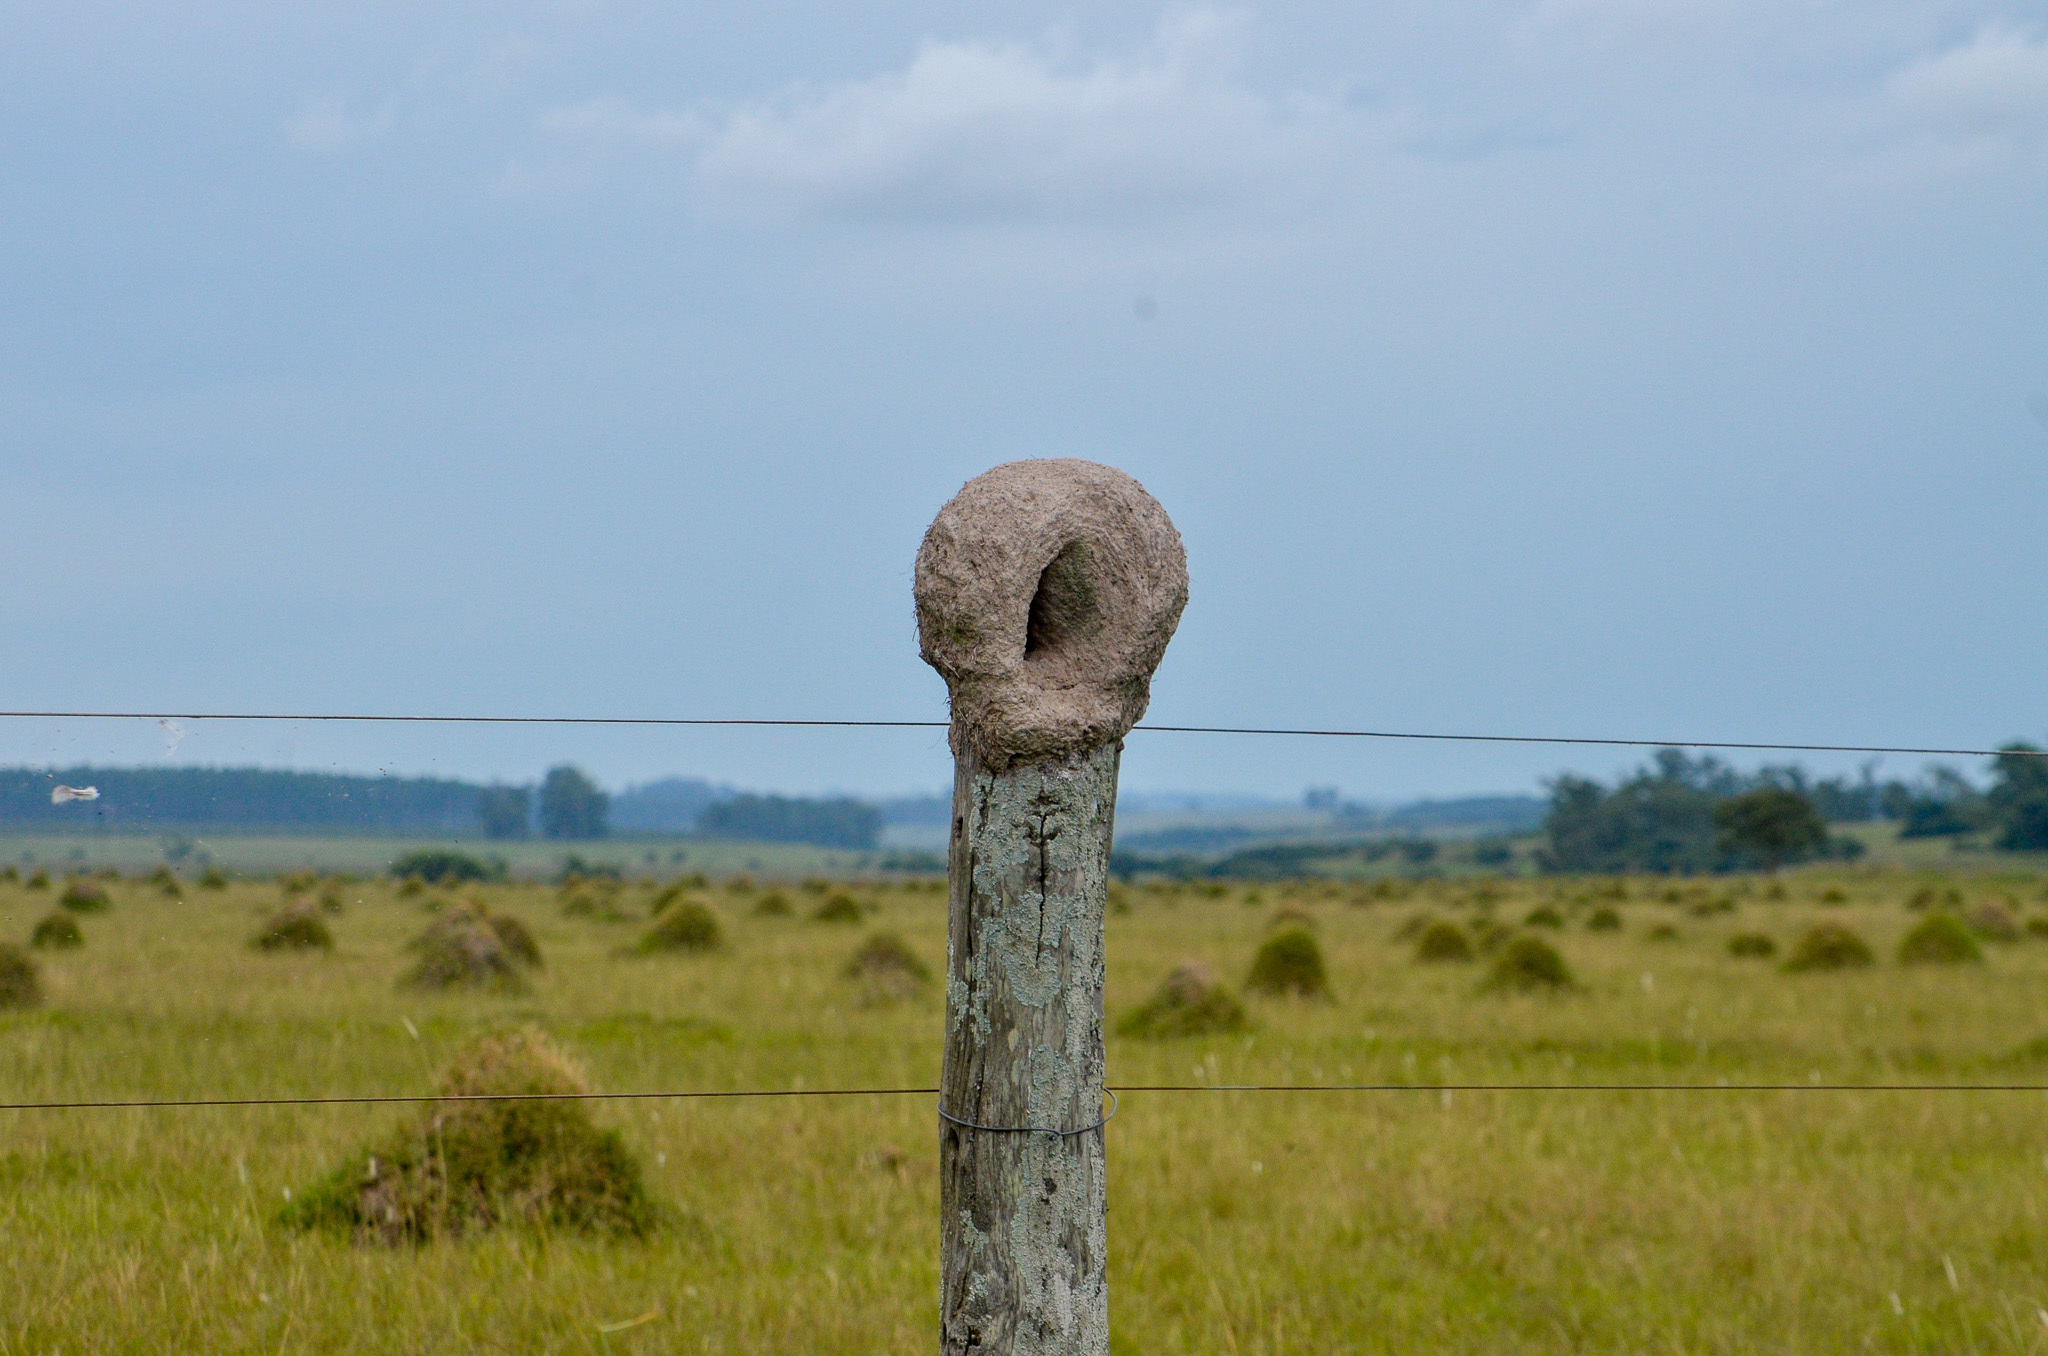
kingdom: Animalia
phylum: Chordata
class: Aves
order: Passeriformes
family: Furnariidae
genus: Furnarius
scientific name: Furnarius rufus
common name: Rufous hornero
